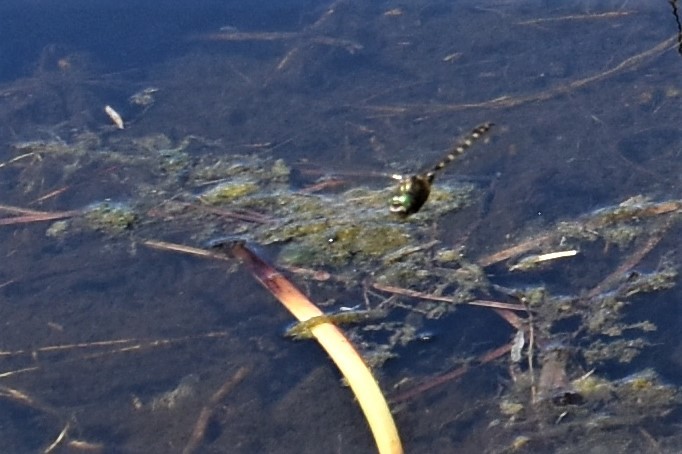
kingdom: Animalia
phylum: Arthropoda
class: Insecta
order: Odonata
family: Corduliidae
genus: Procordulia
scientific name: Procordulia grayi
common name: Yellow spotted dragonfly
